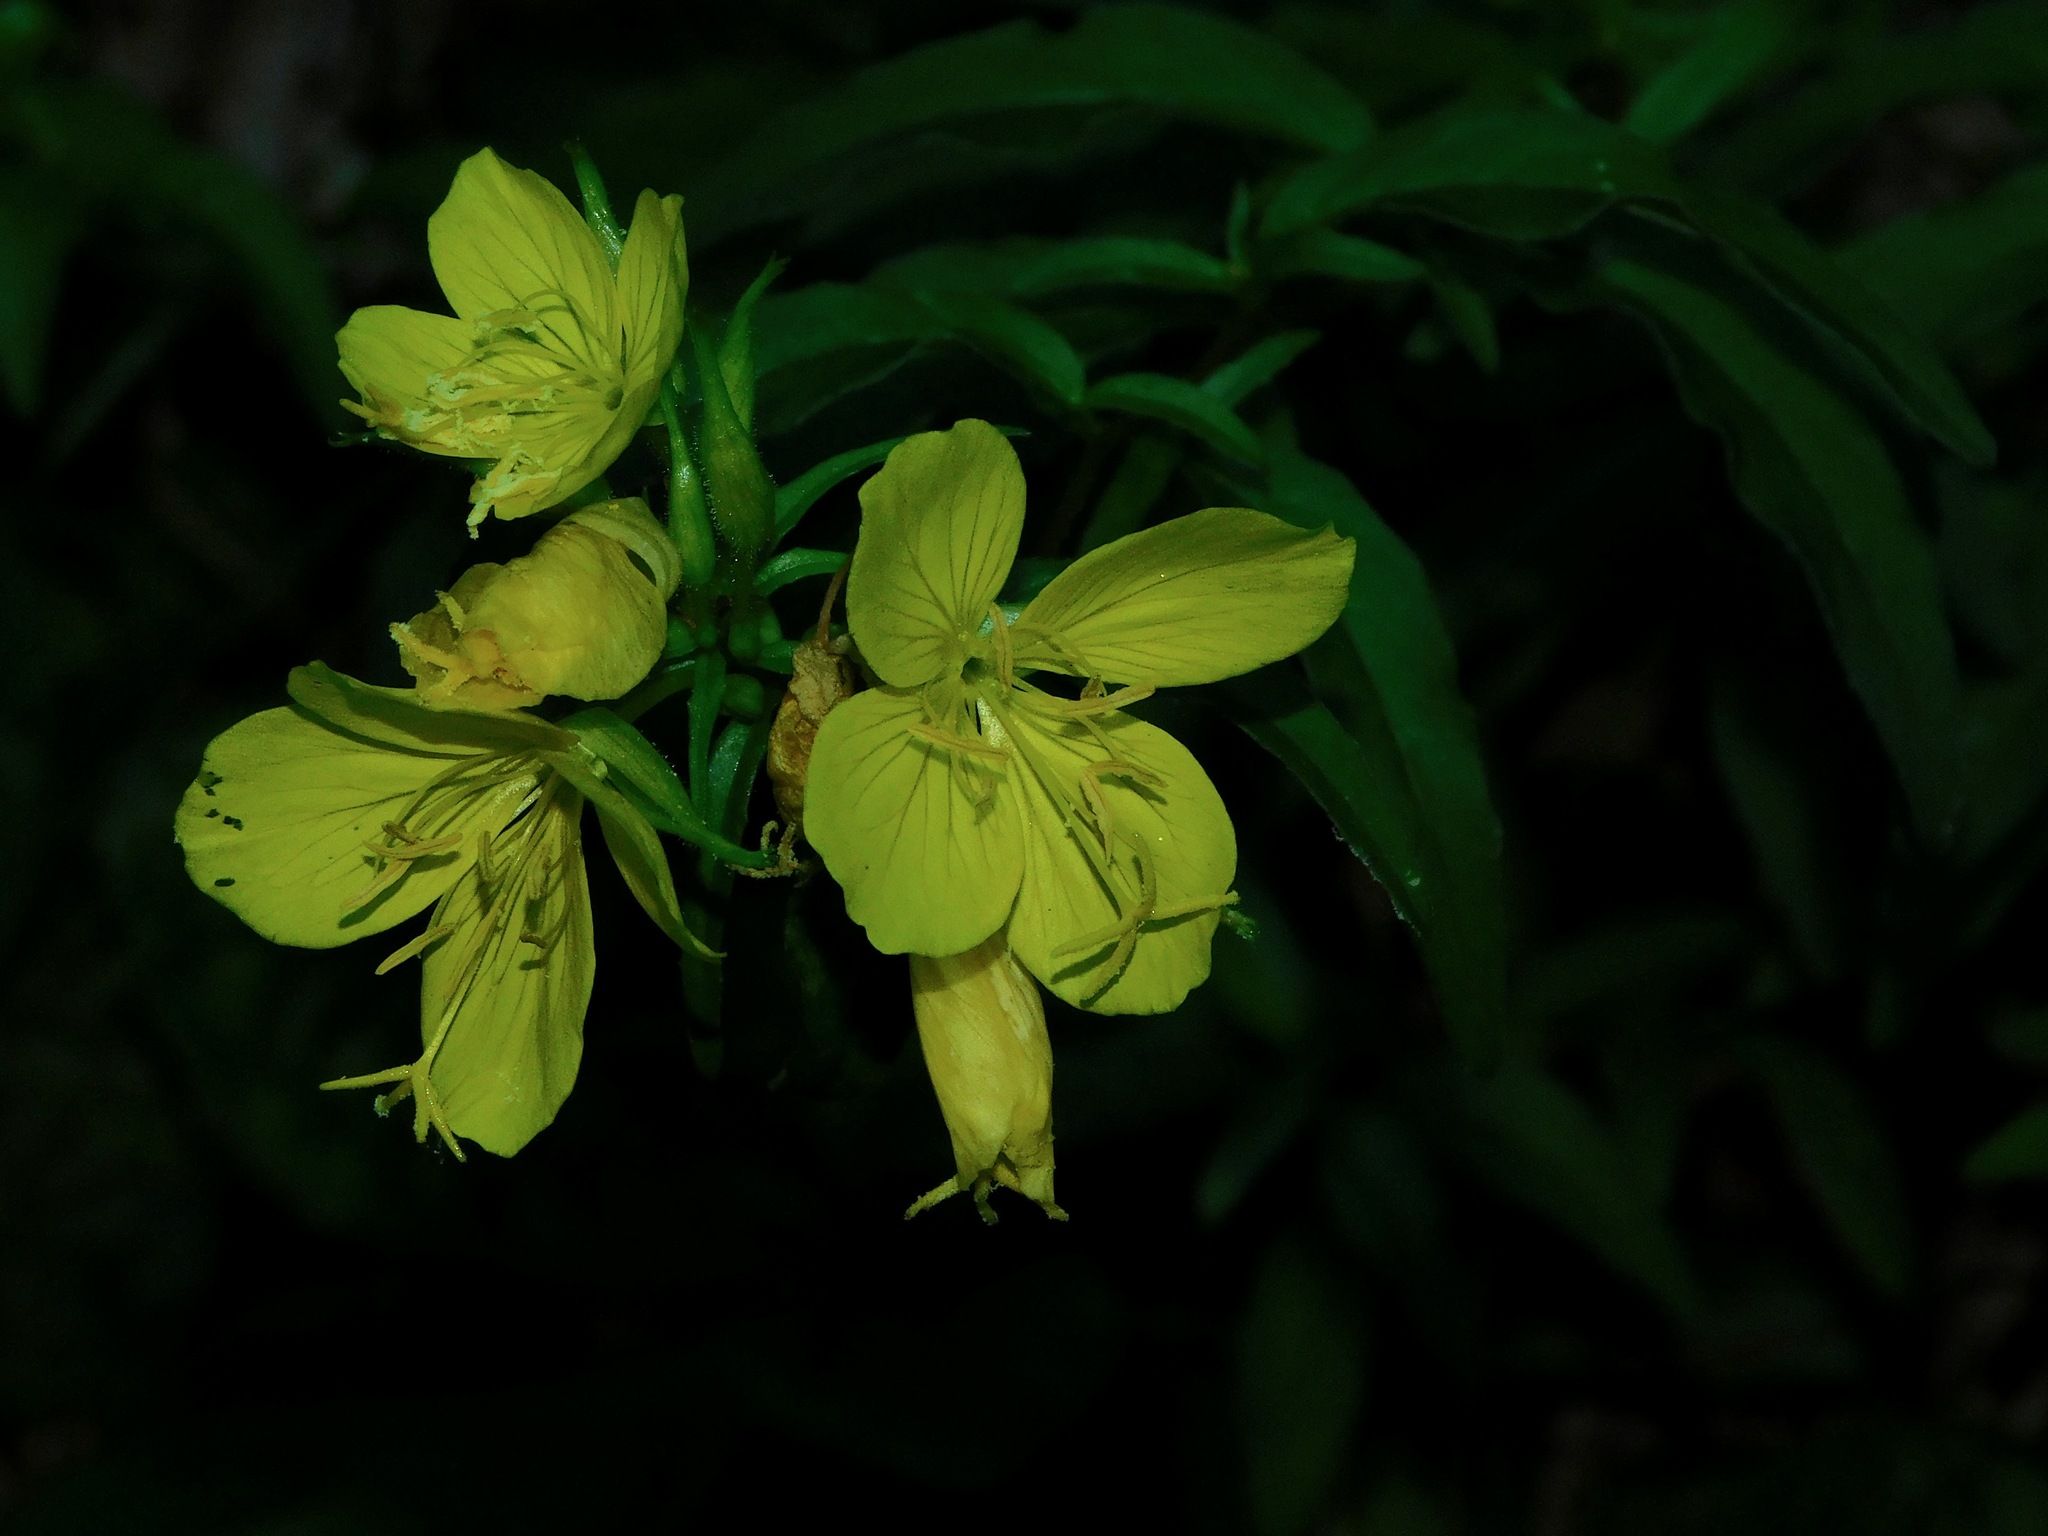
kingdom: Plantae
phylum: Tracheophyta
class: Magnoliopsida
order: Myrtales
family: Onagraceae
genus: Oenothera
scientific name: Oenothera fruticosa
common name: Southern sundrops
